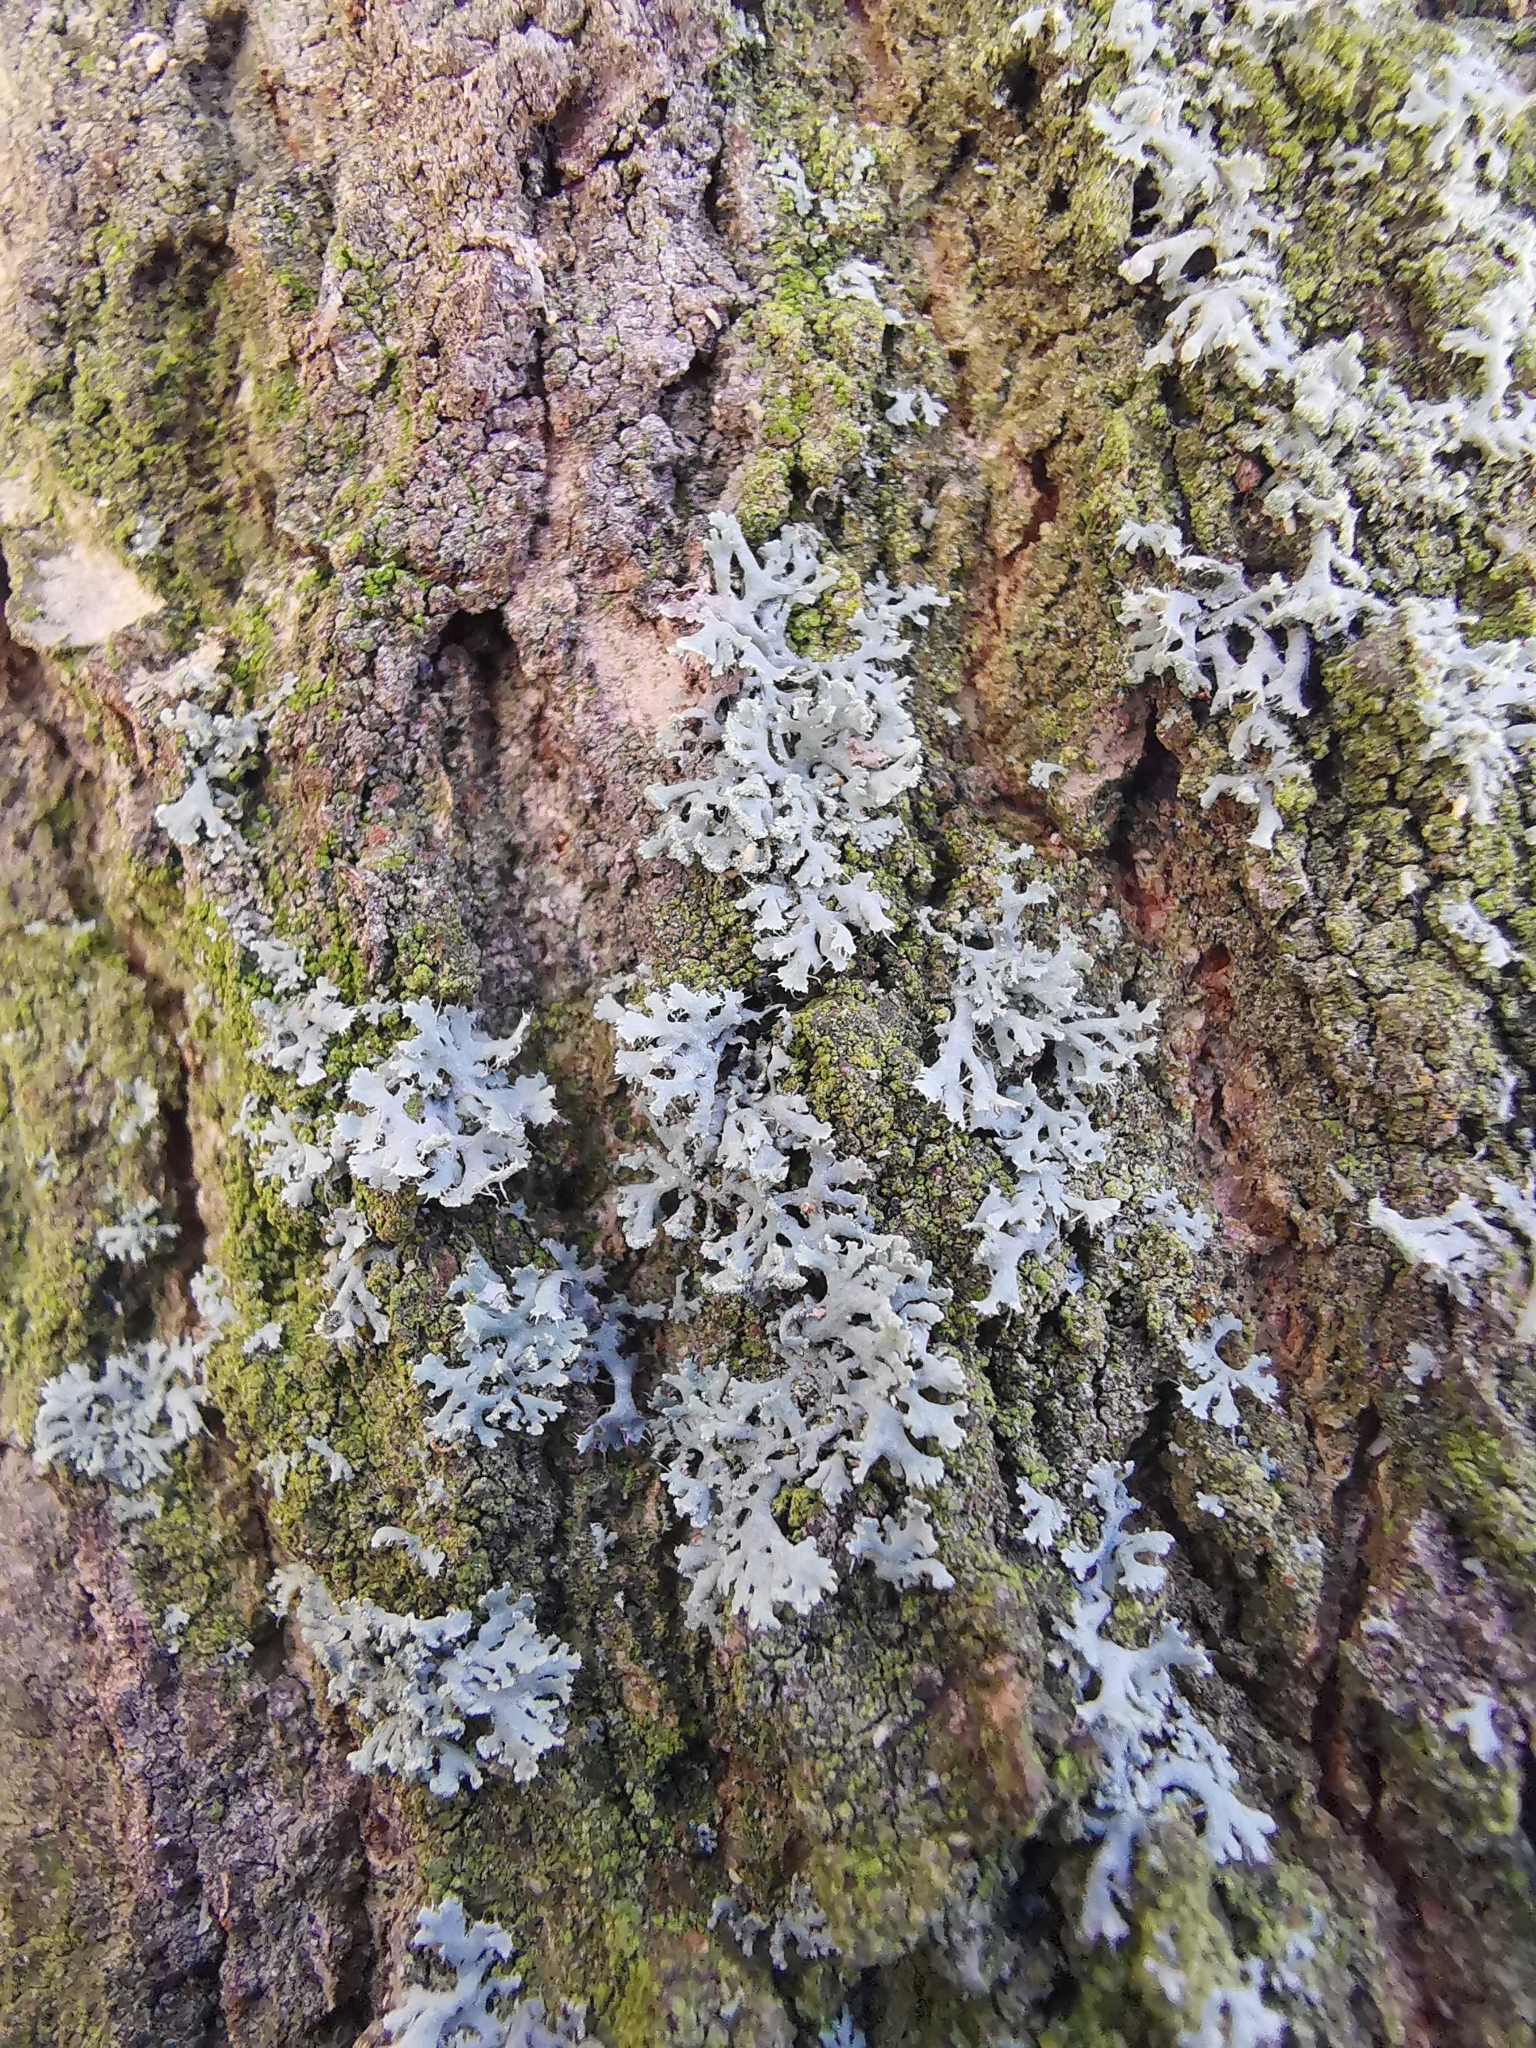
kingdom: Fungi
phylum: Ascomycota
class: Lecanoromycetes
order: Caliciales
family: Physciaceae
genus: Physcia
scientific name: Physcia tenella
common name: Fringed rosette lichen
